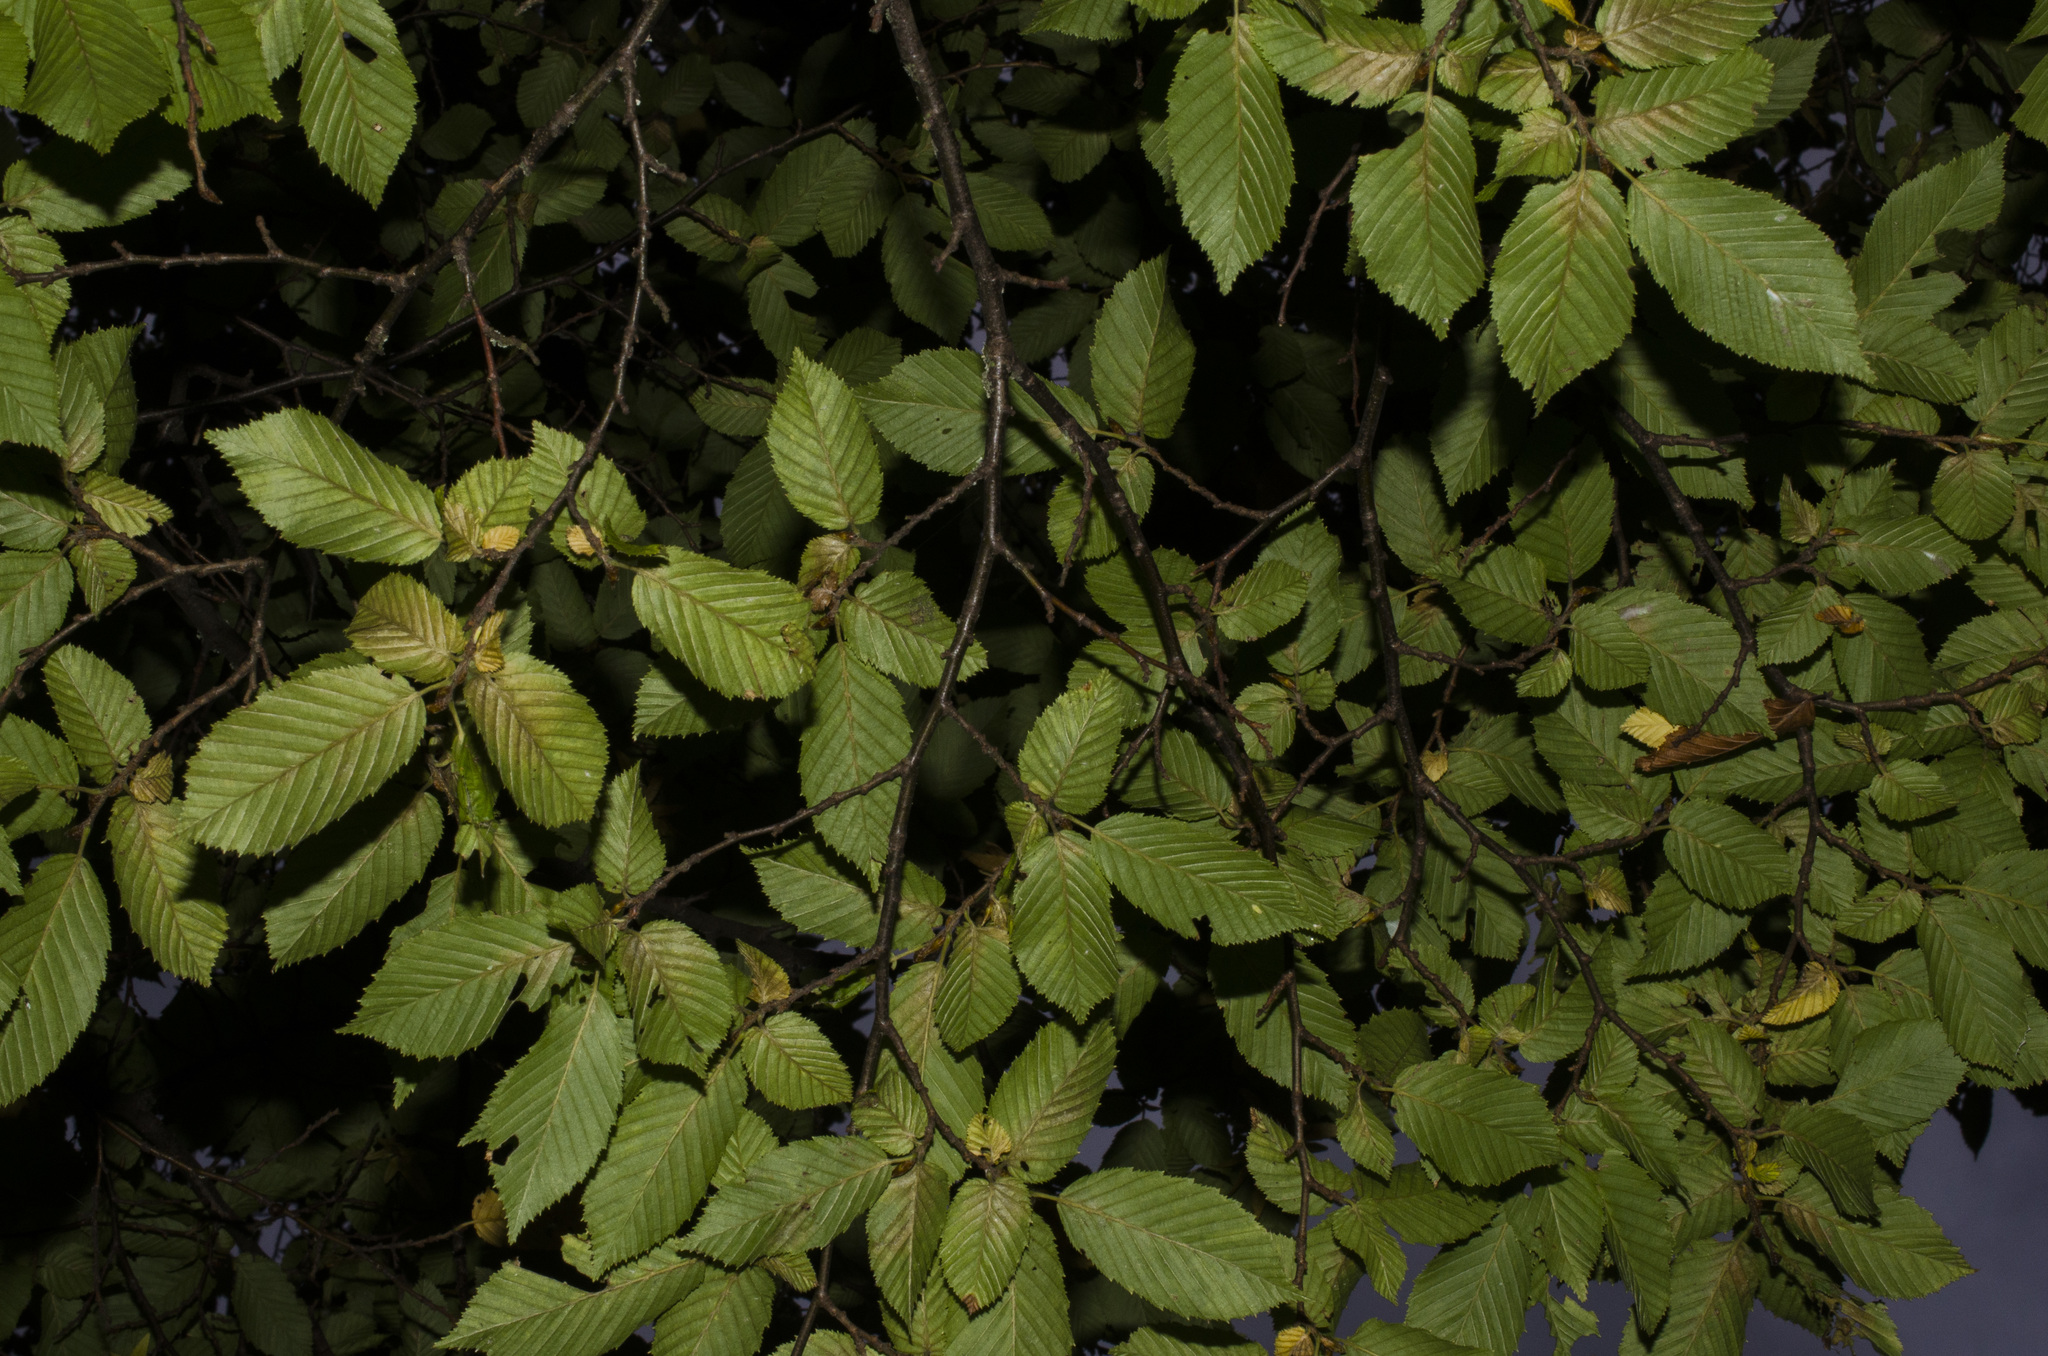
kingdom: Fungi
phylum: Basidiomycota
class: Agaricomycetes
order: Agaricales
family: Amanitaceae
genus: Amanita
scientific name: Amanita phalloides
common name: Death cap
